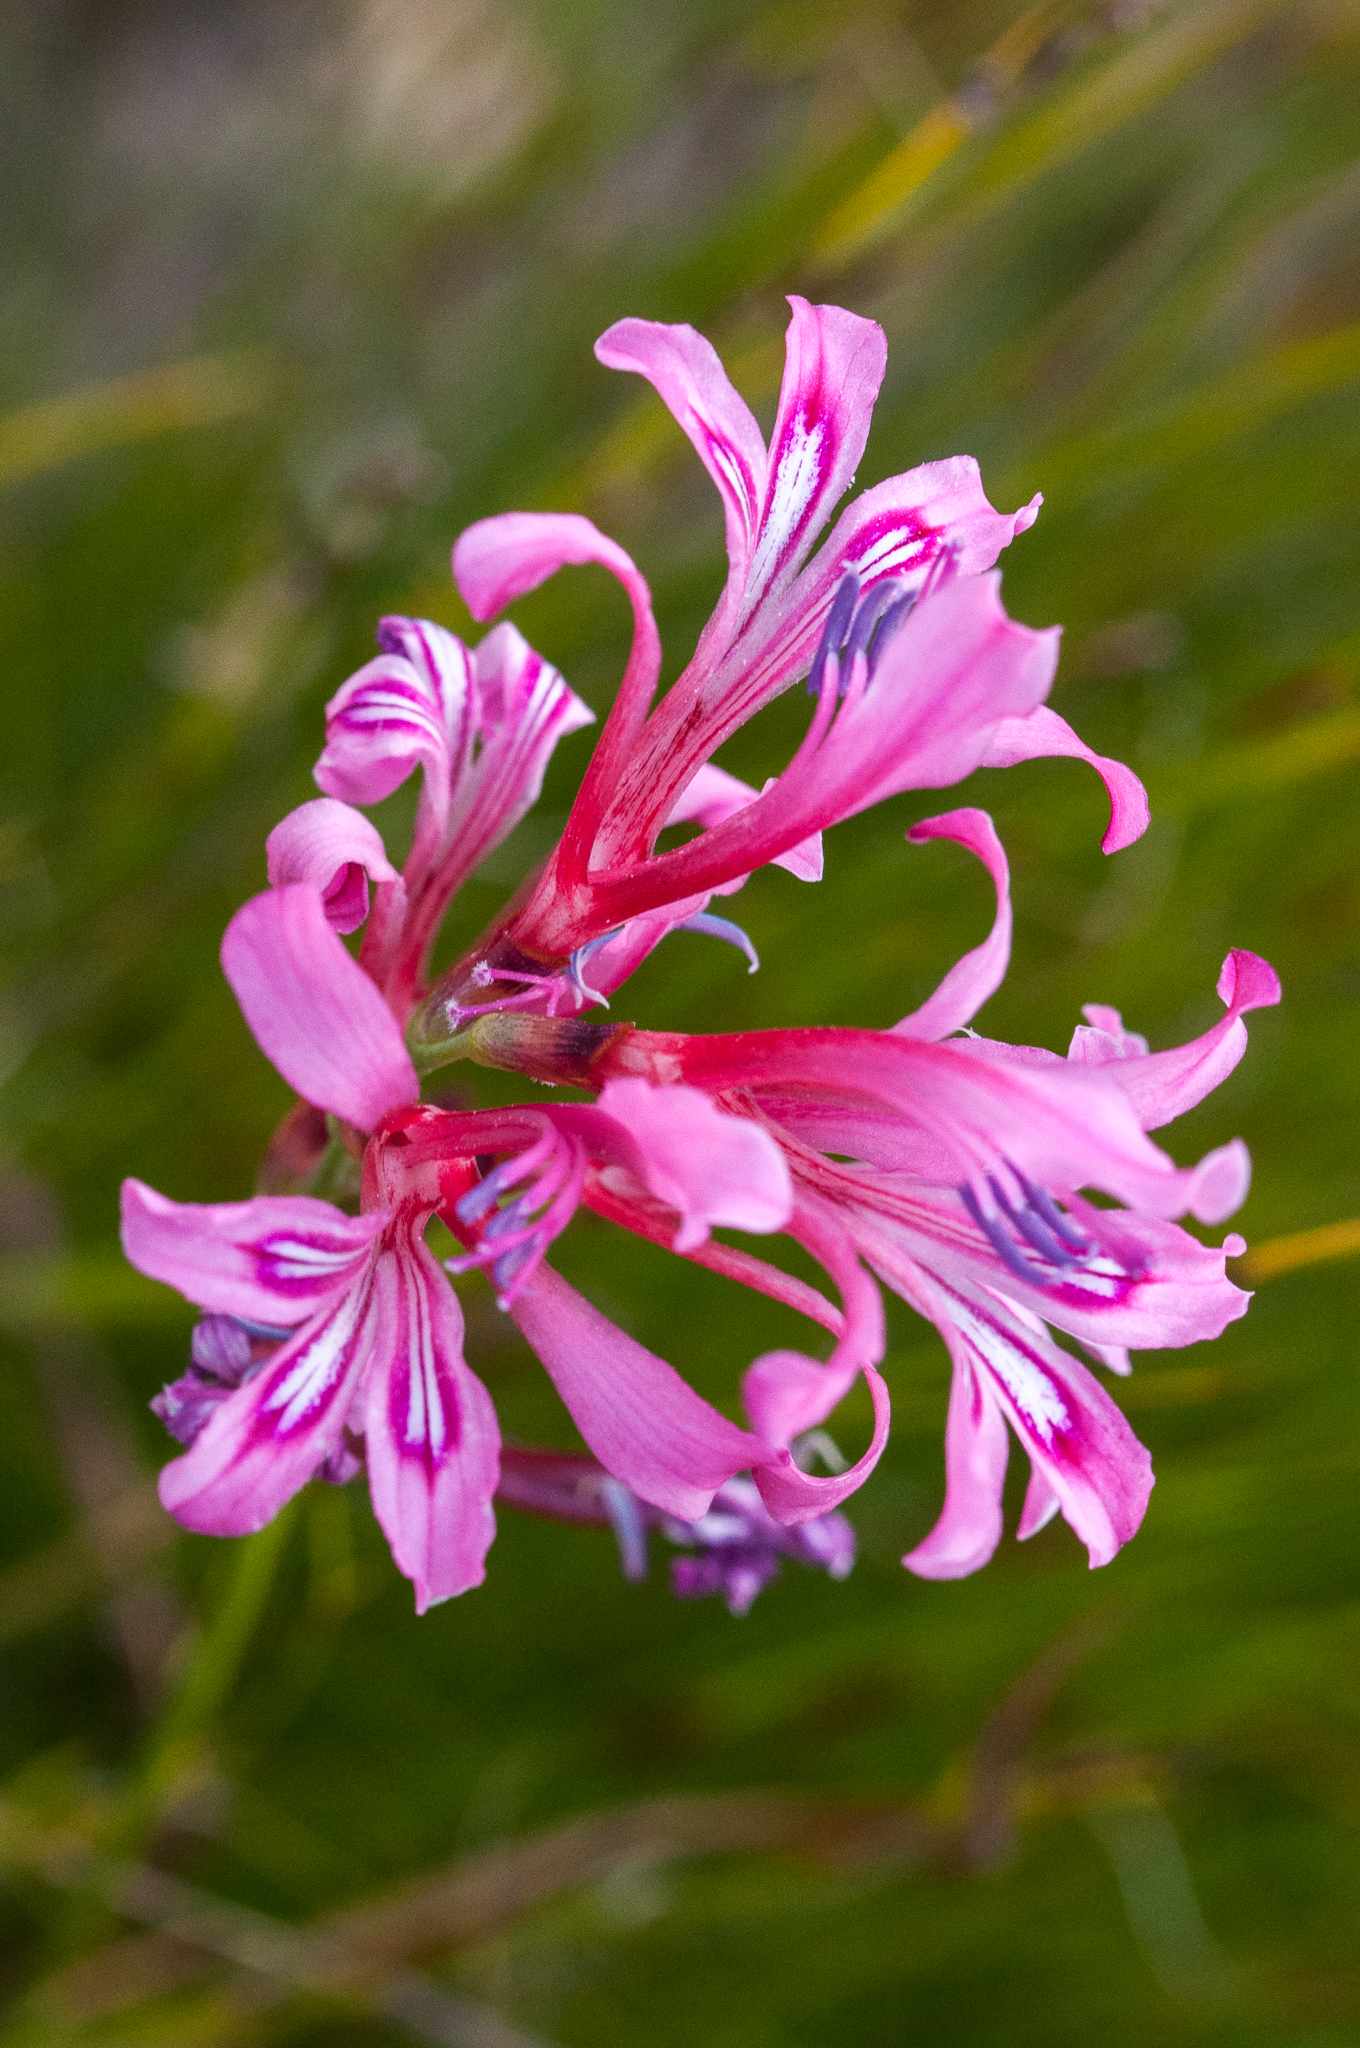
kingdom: Plantae
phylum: Tracheophyta
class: Liliopsida
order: Asparagales
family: Iridaceae
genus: Tritoniopsis
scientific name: Tritoniopsis ramosa
